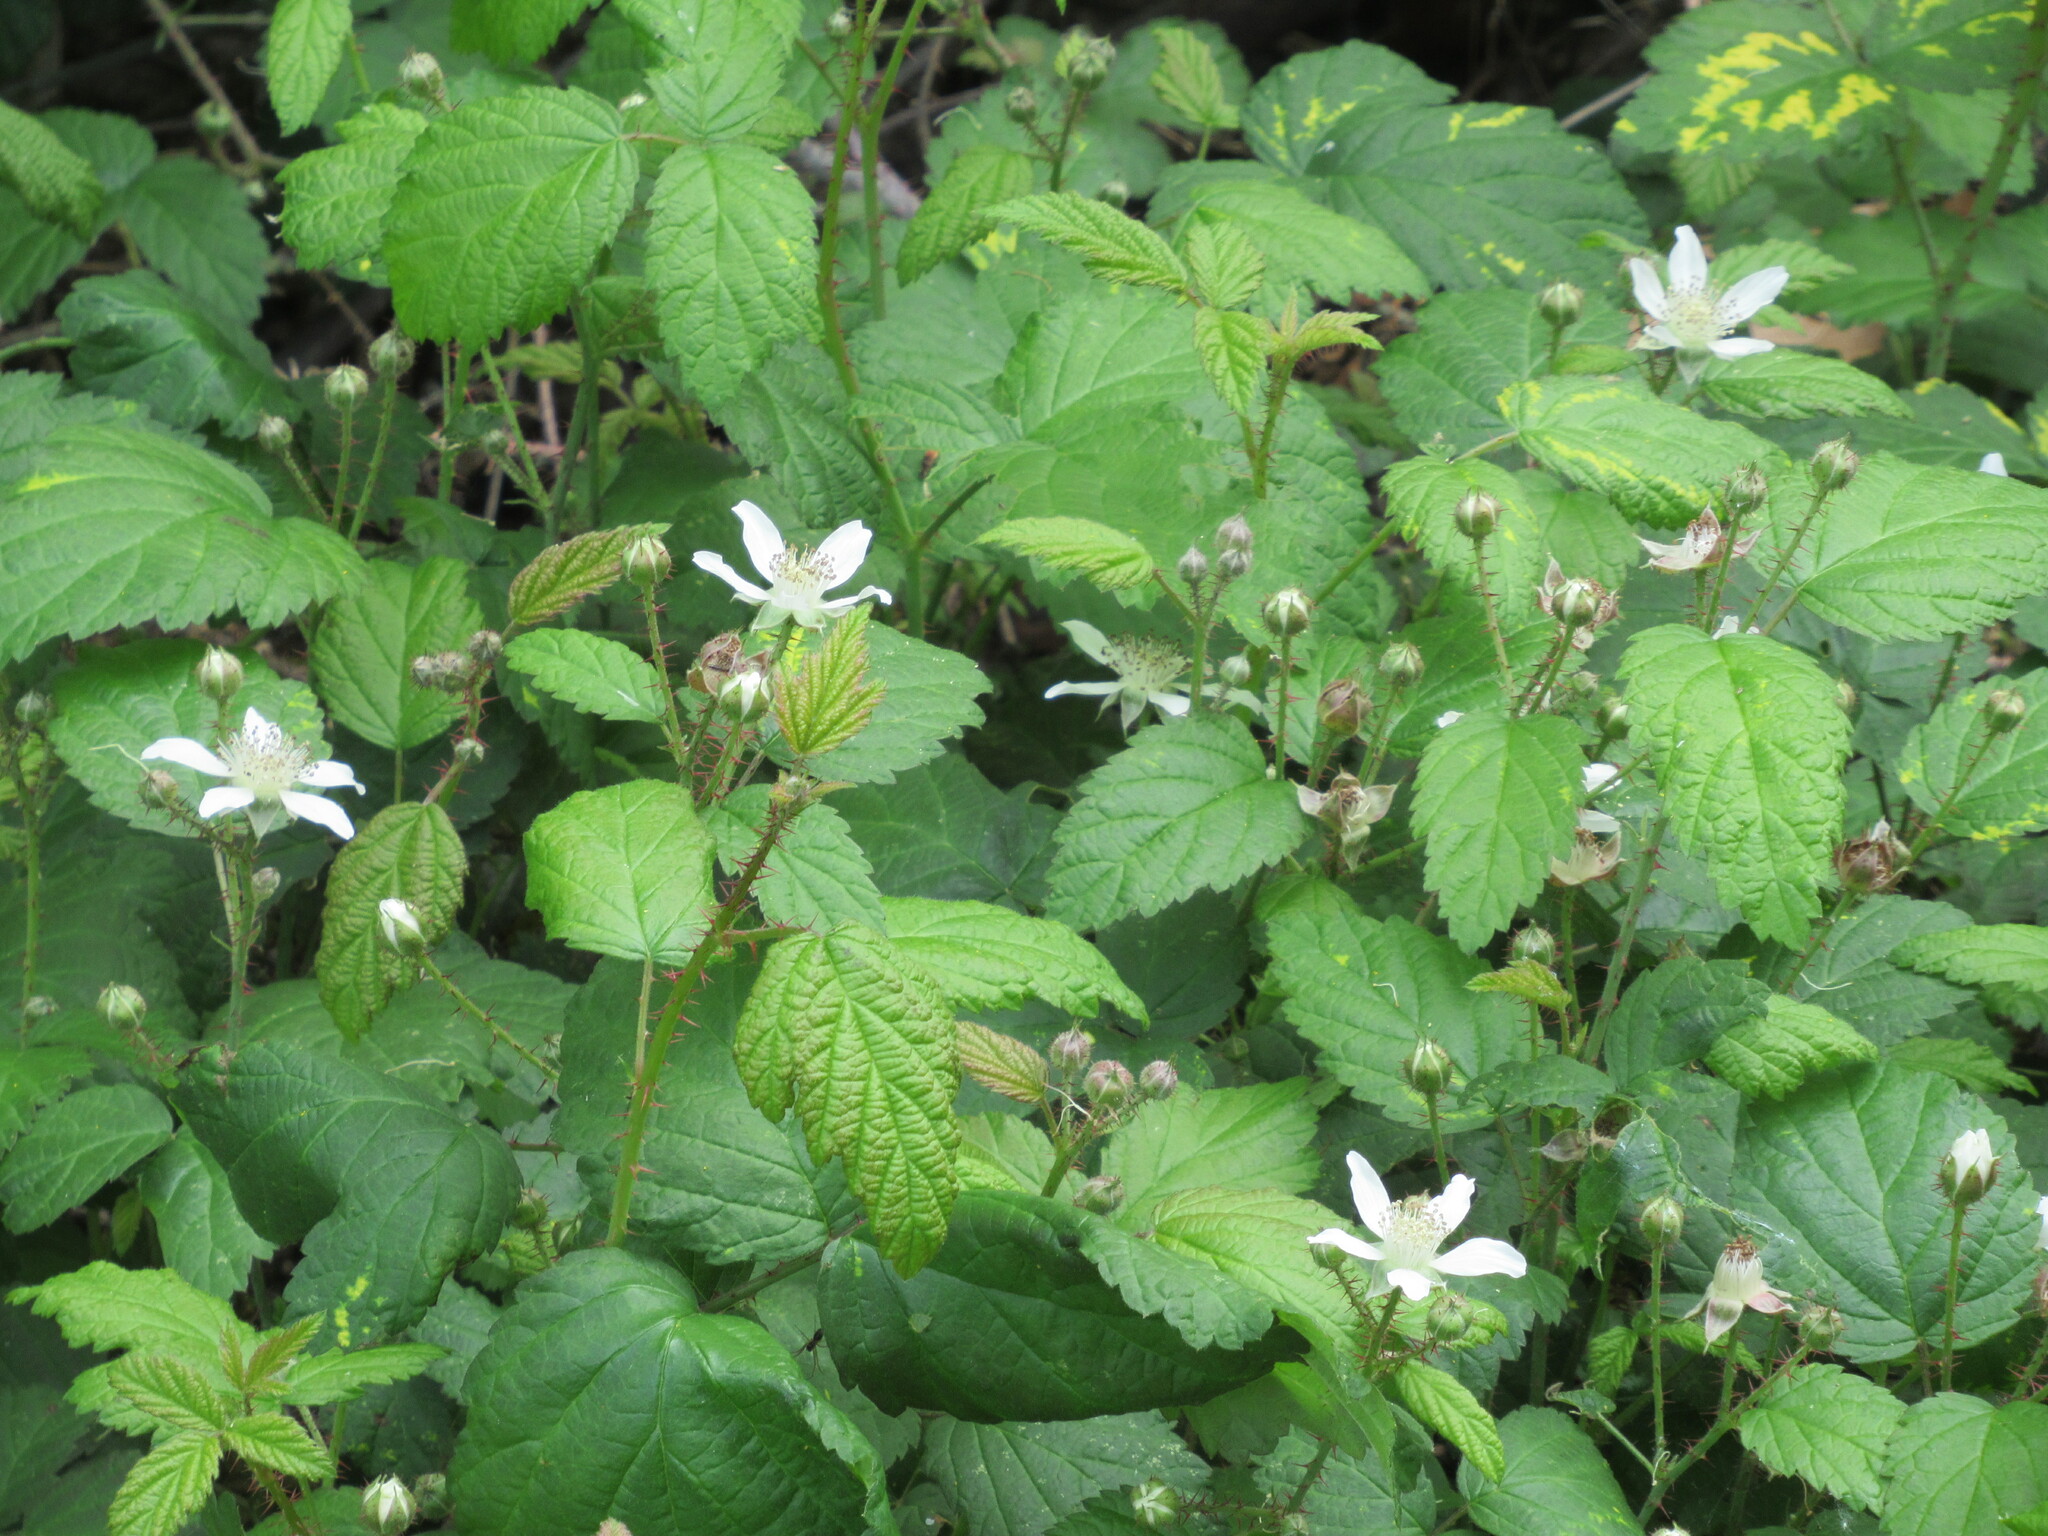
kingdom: Plantae
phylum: Tracheophyta
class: Magnoliopsida
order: Rosales
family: Rosaceae
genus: Rubus
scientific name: Rubus ursinus
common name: Pacific blackberry
